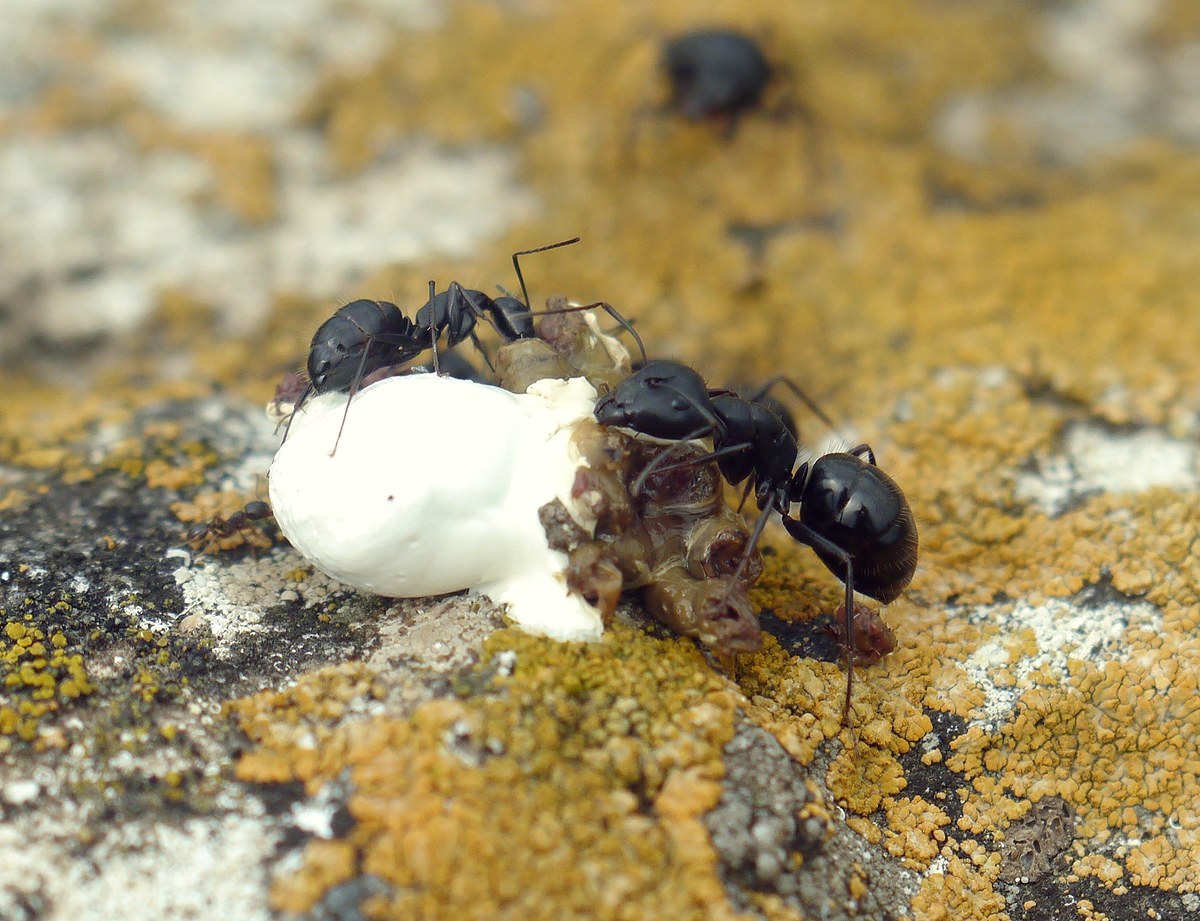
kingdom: Animalia
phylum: Arthropoda
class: Insecta
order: Hymenoptera
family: Formicidae
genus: Camponotus
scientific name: Camponotus aethiops
